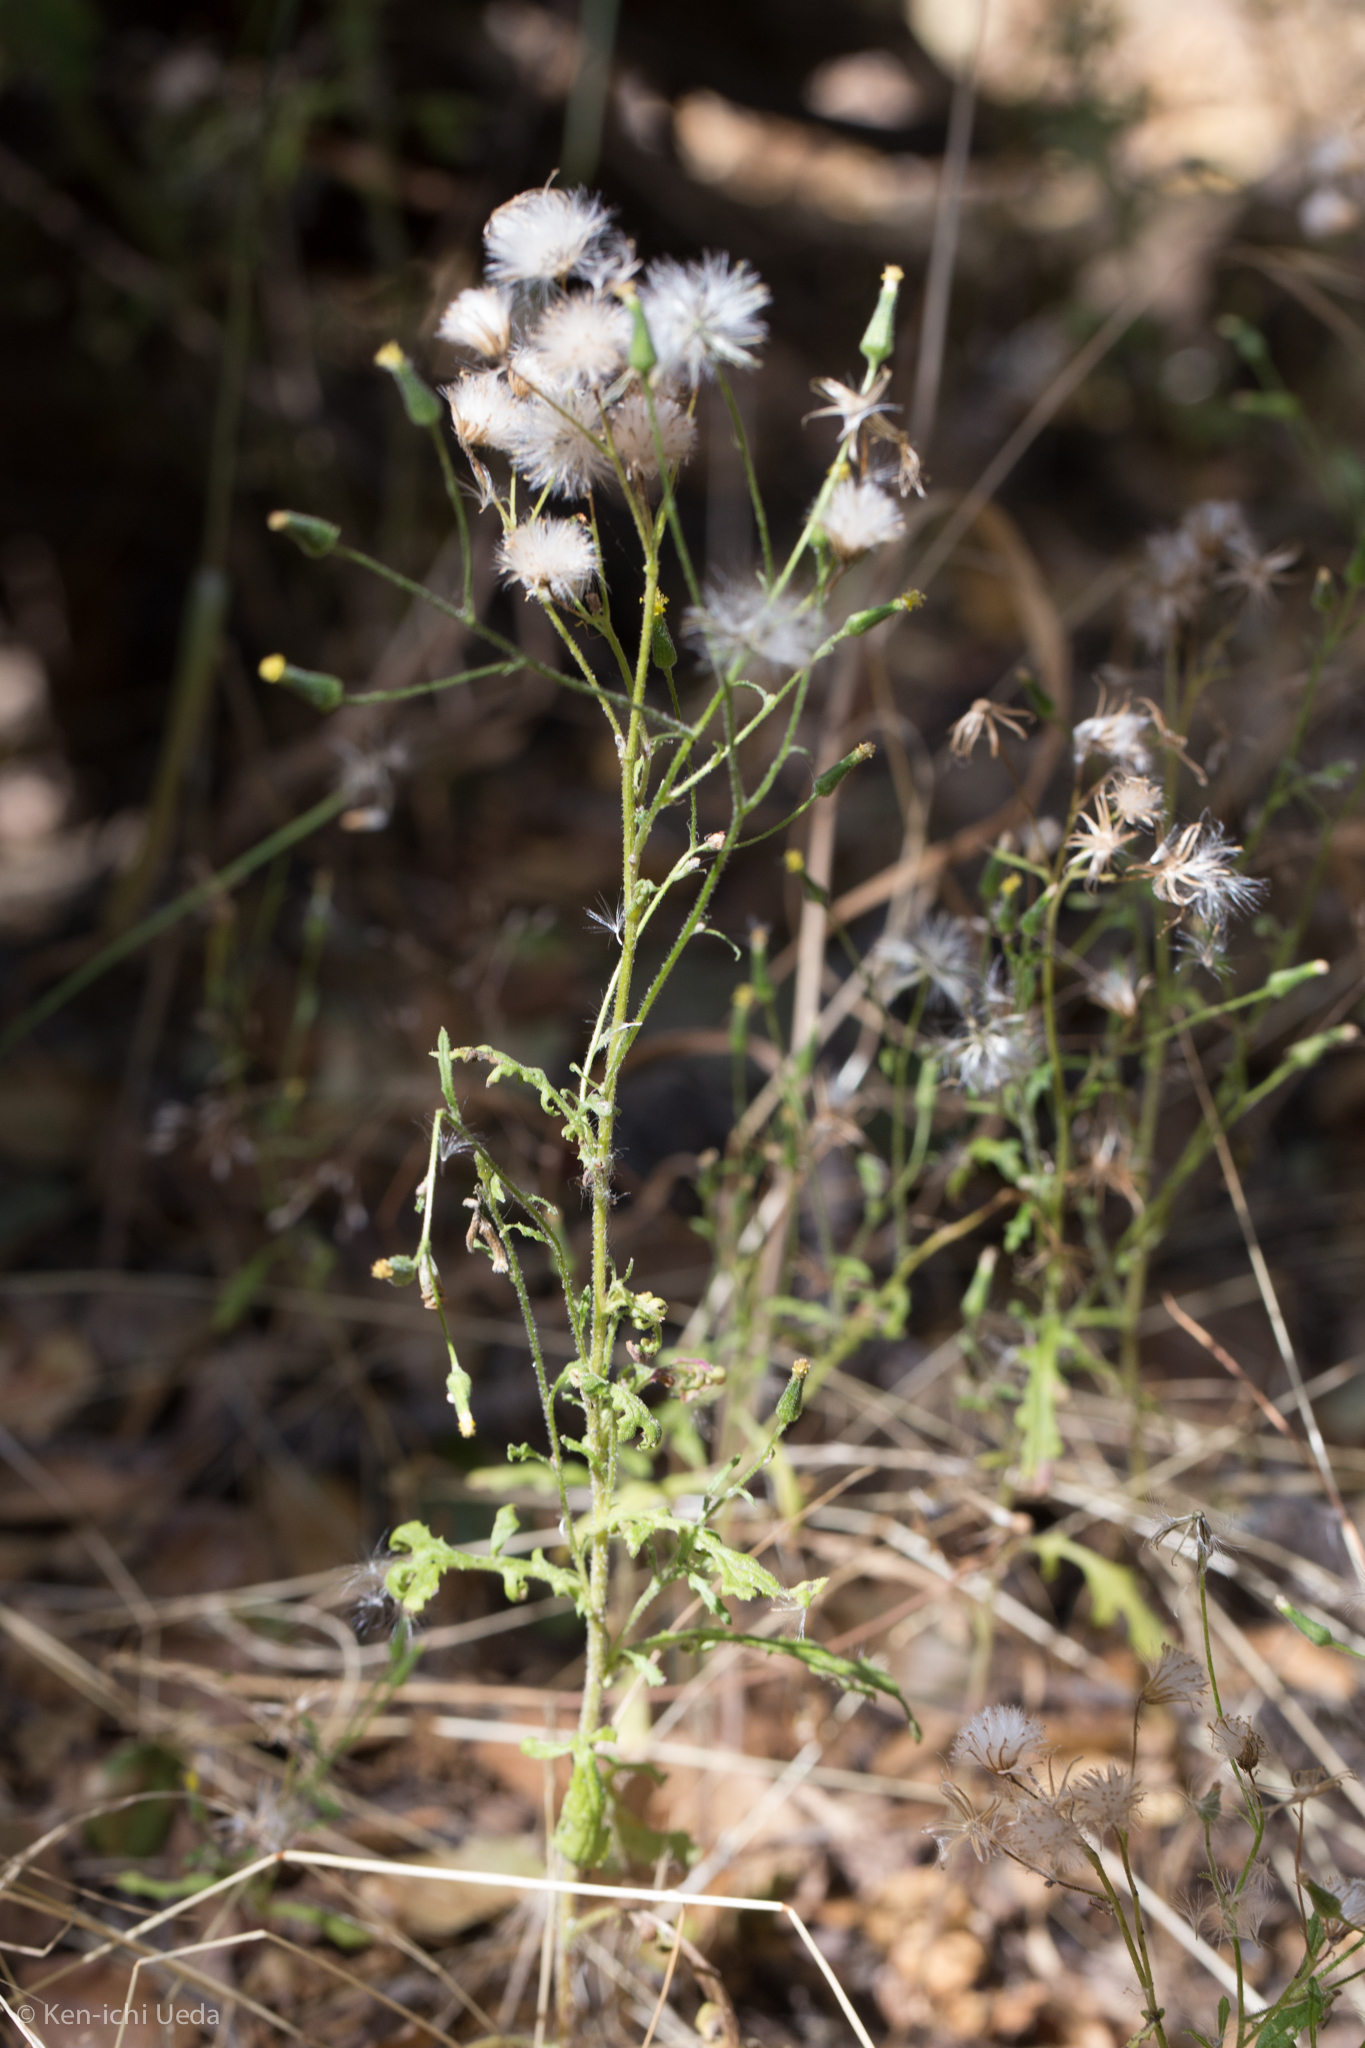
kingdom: Plantae
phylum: Tracheophyta
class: Magnoliopsida
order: Asterales
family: Asteraceae
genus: Senecio
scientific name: Senecio sylvaticus
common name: Woodland ragwort
